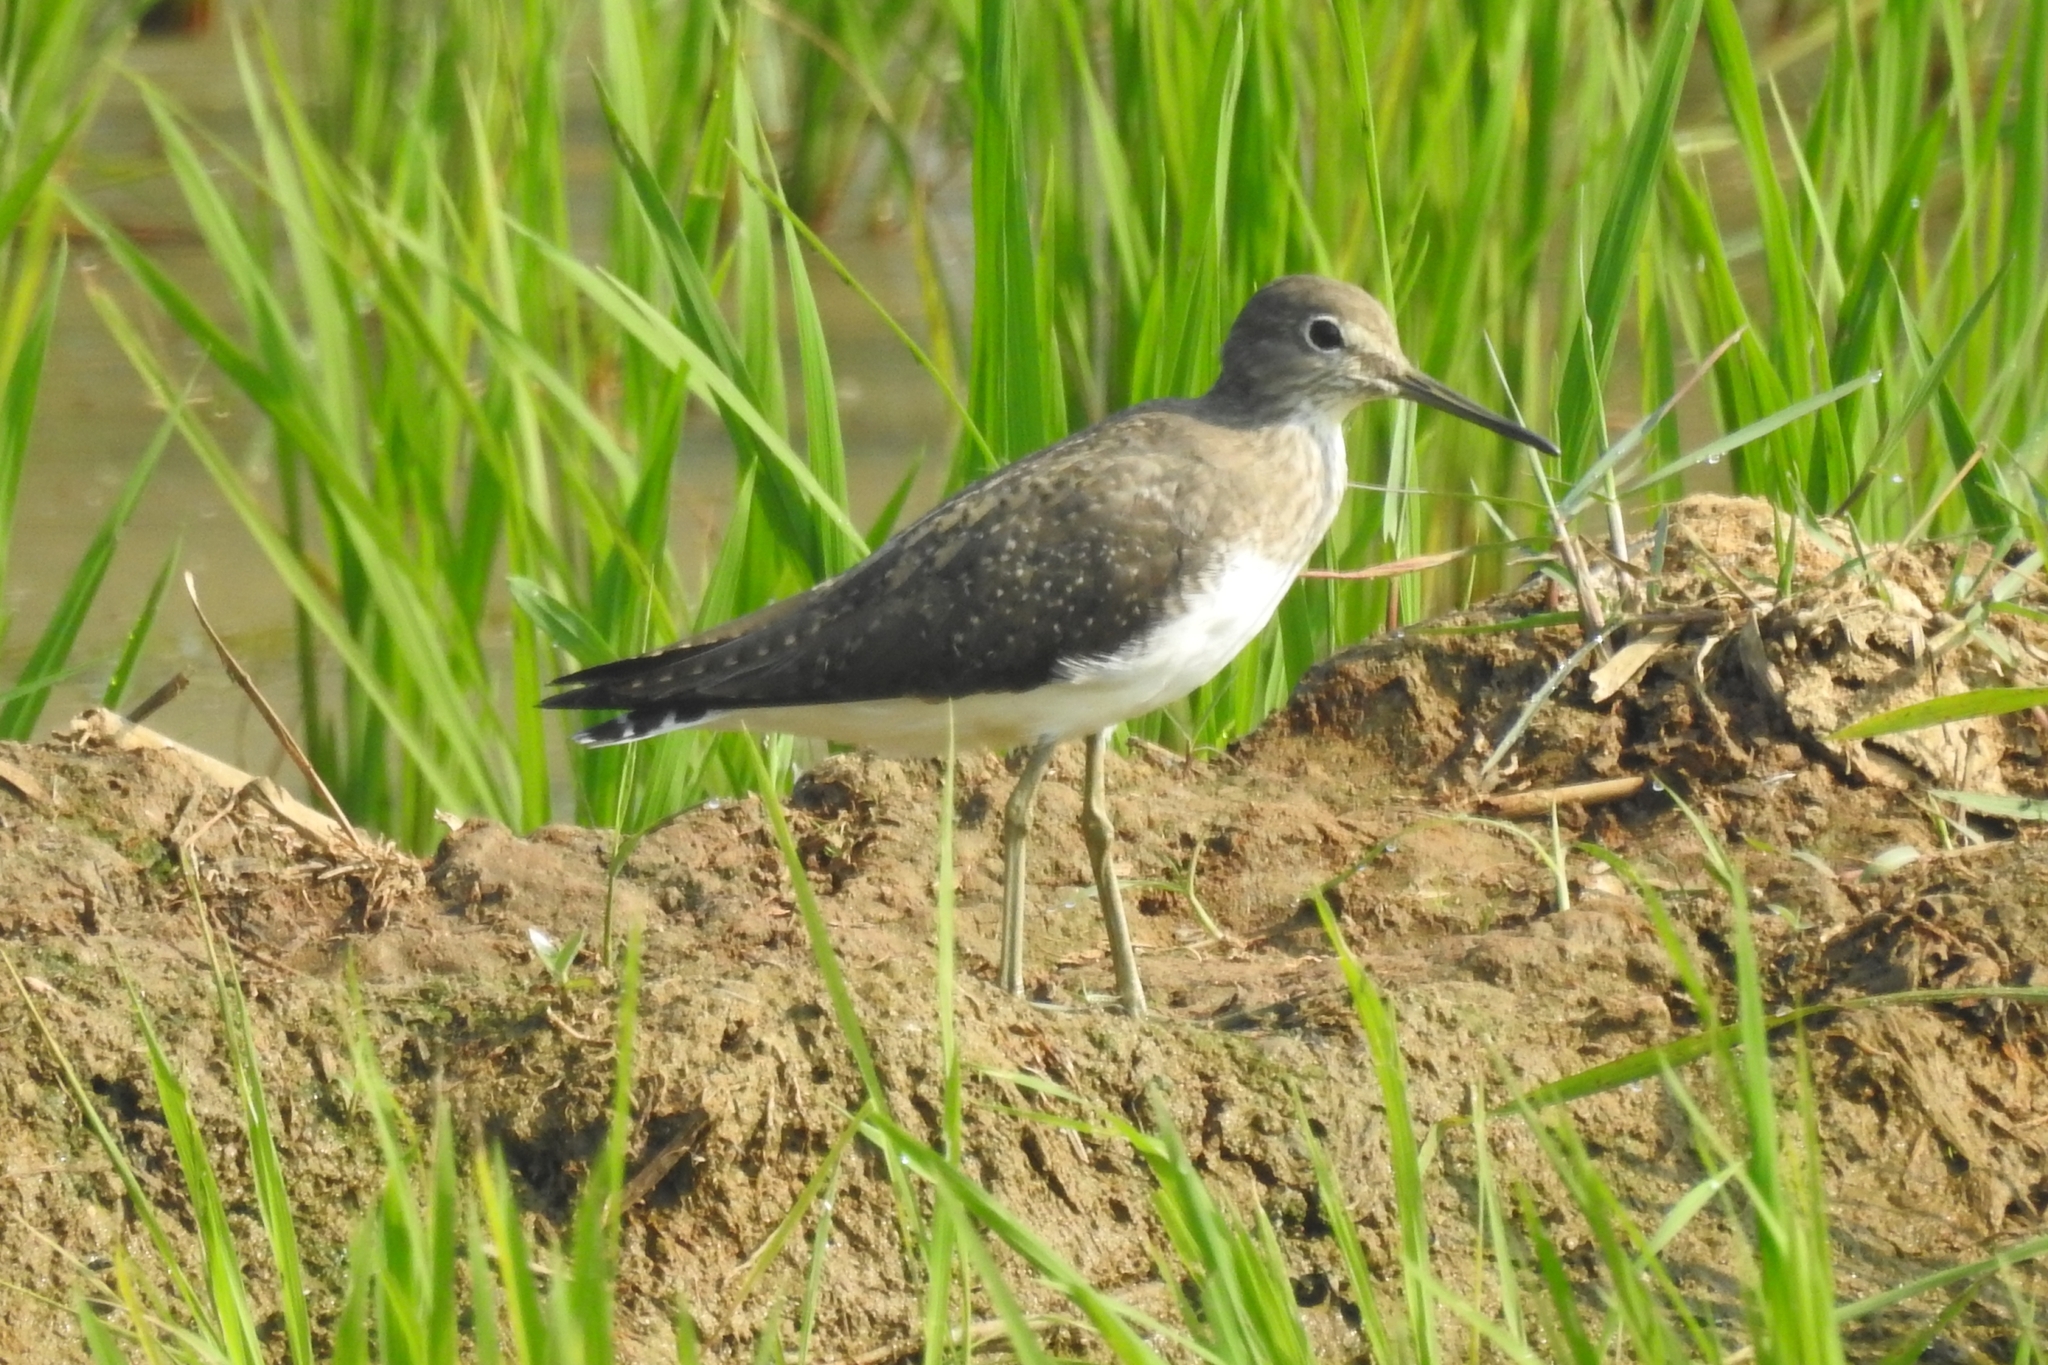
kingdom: Animalia
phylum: Chordata
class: Aves
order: Charadriiformes
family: Scolopacidae
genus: Tringa
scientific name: Tringa ochropus
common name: Green sandpiper
